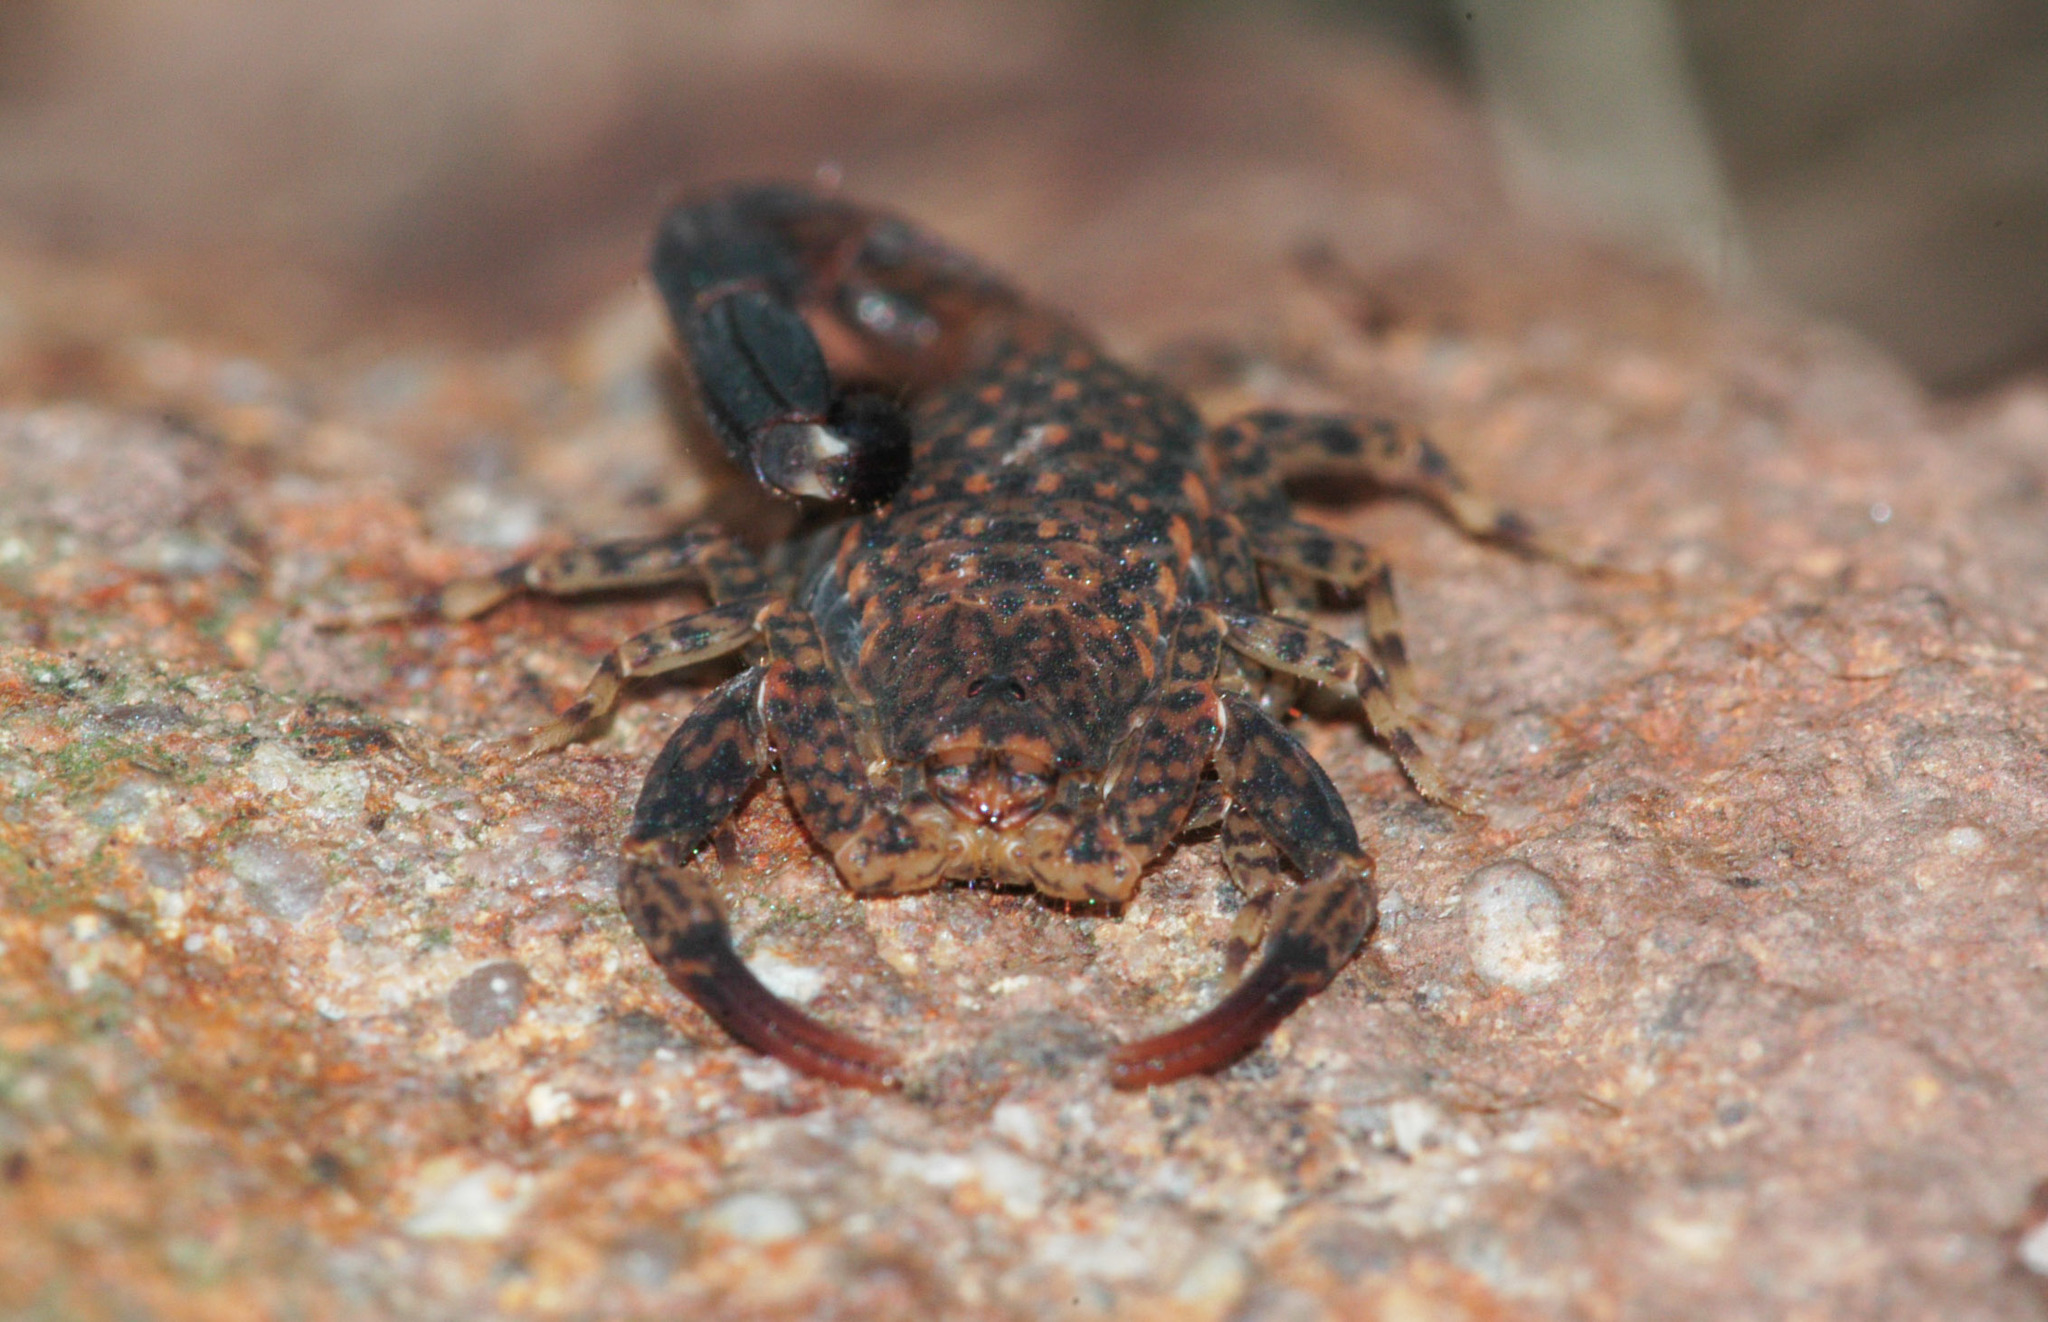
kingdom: Animalia
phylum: Arthropoda
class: Arachnida
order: Scorpiones
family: Buthidae
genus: Lychas
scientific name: Lychas variatus
